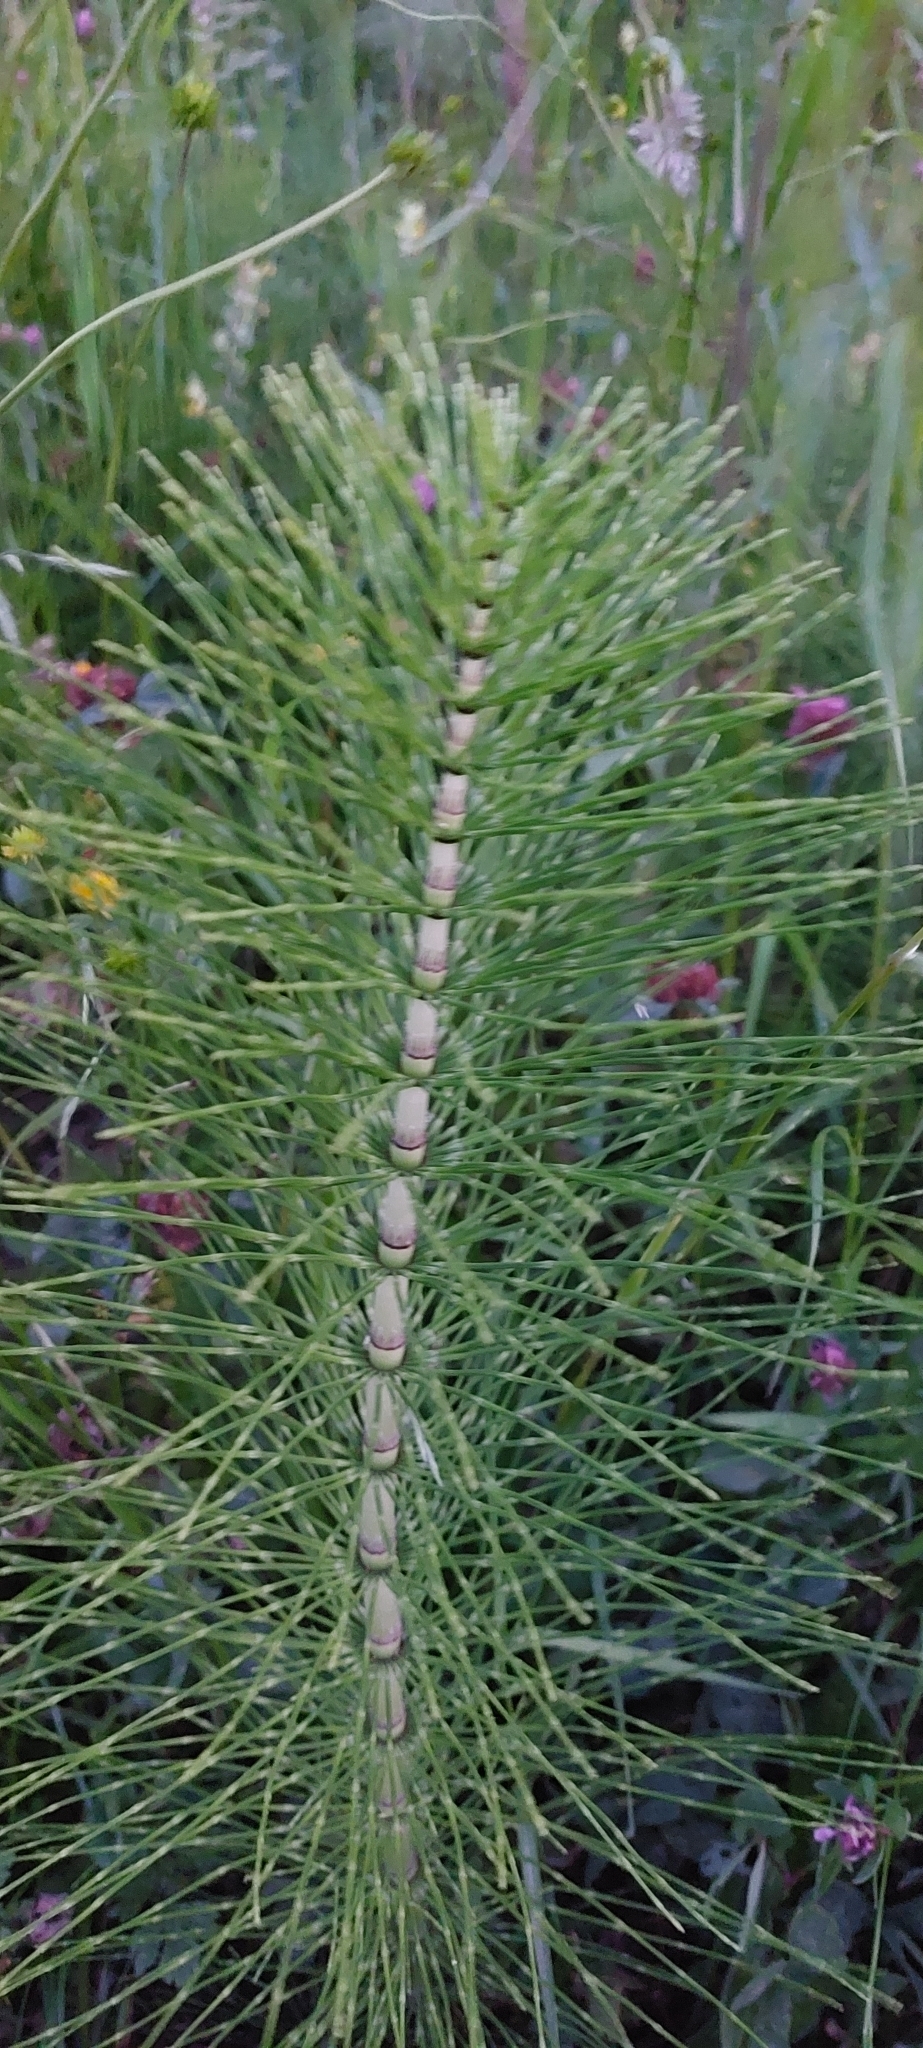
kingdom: Plantae
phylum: Tracheophyta
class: Polypodiopsida
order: Equisetales
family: Equisetaceae
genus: Equisetum
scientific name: Equisetum telmateia
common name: Great horsetail
